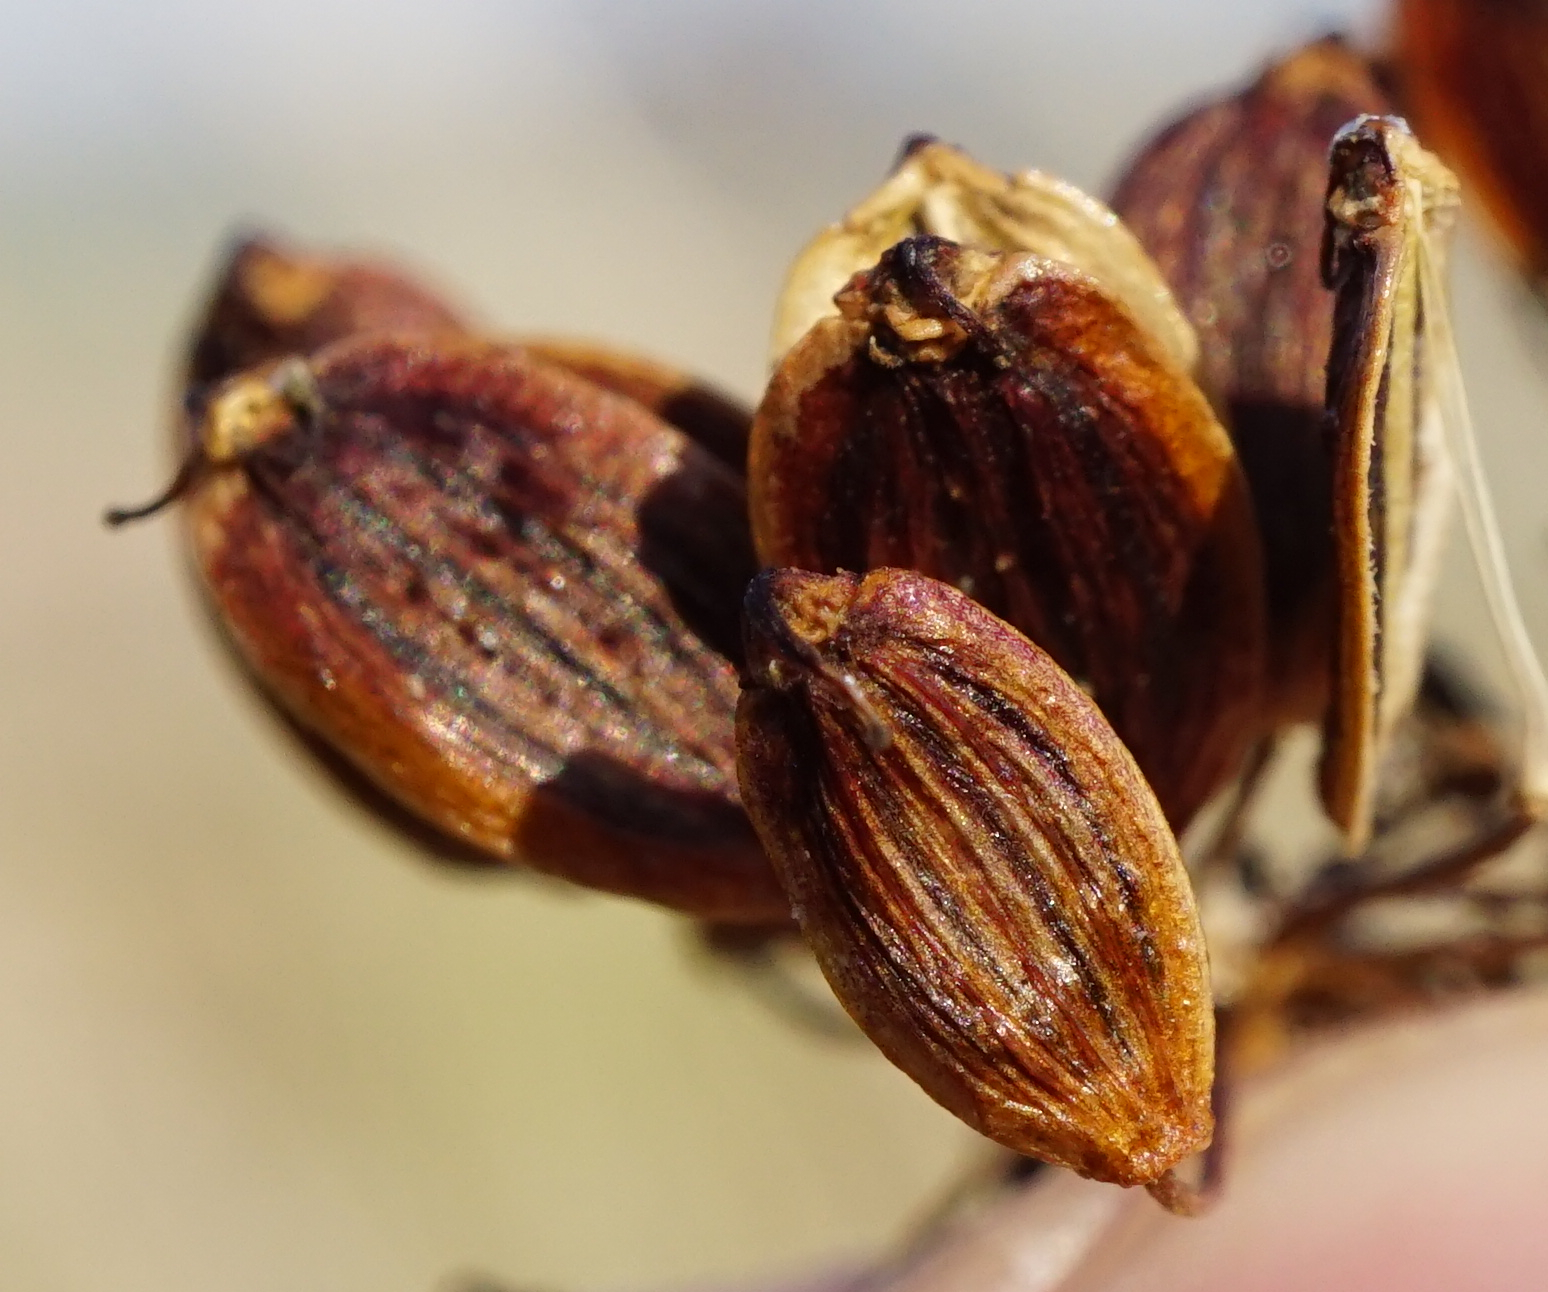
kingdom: Plantae
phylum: Tracheophyta
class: Magnoliopsida
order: Apiales
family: Apiaceae
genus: Cervaria
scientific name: Cervaria rivini
